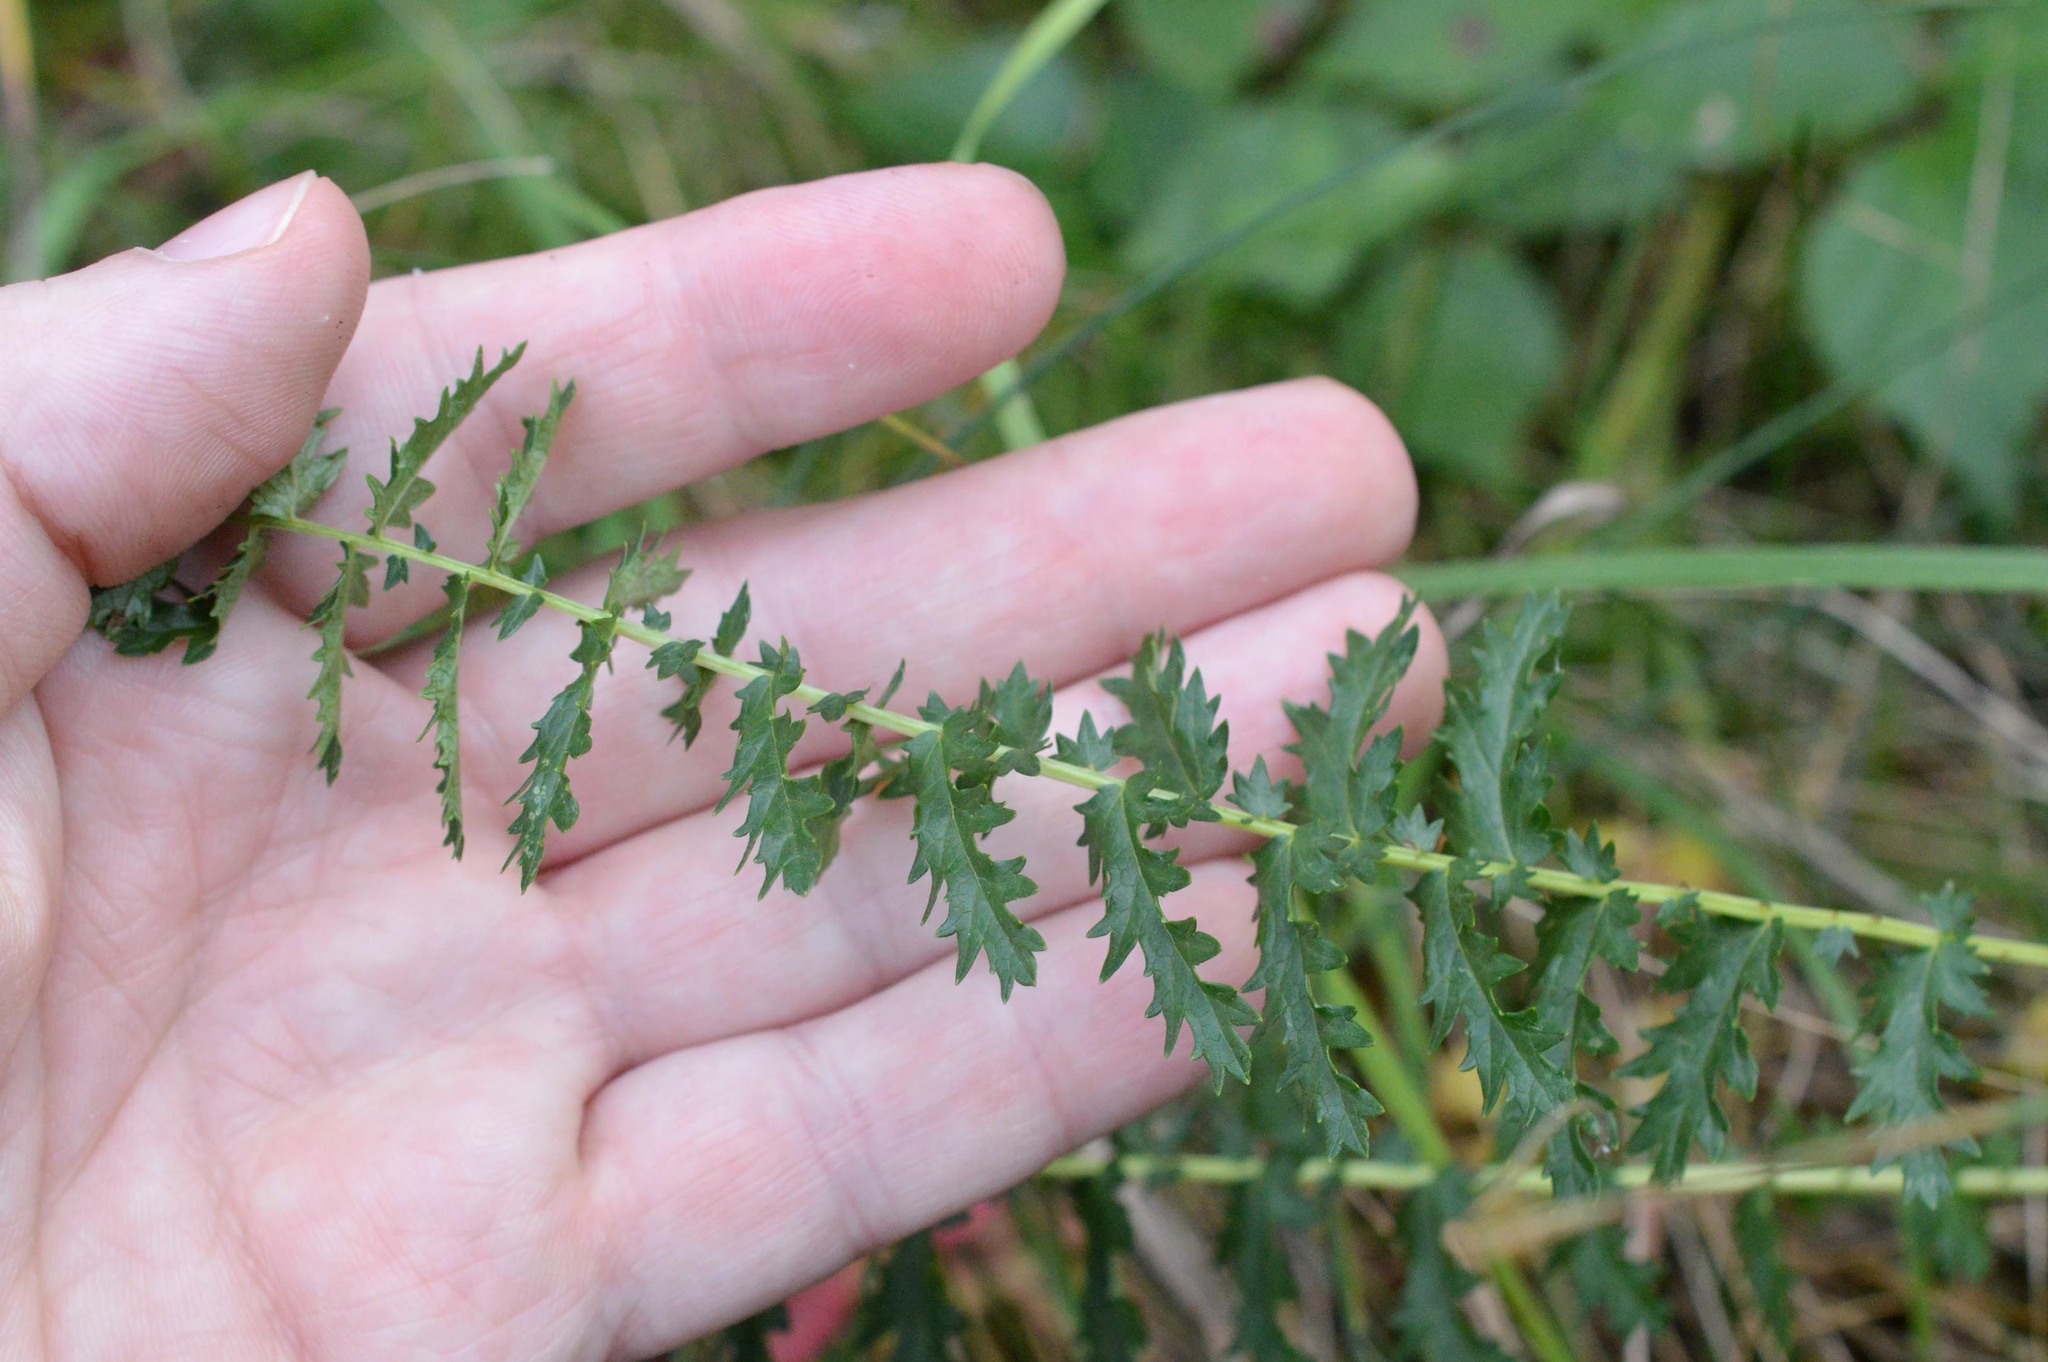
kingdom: Plantae
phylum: Tracheophyta
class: Magnoliopsida
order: Rosales
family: Rosaceae
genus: Filipendula
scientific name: Filipendula vulgaris
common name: Dropwort
